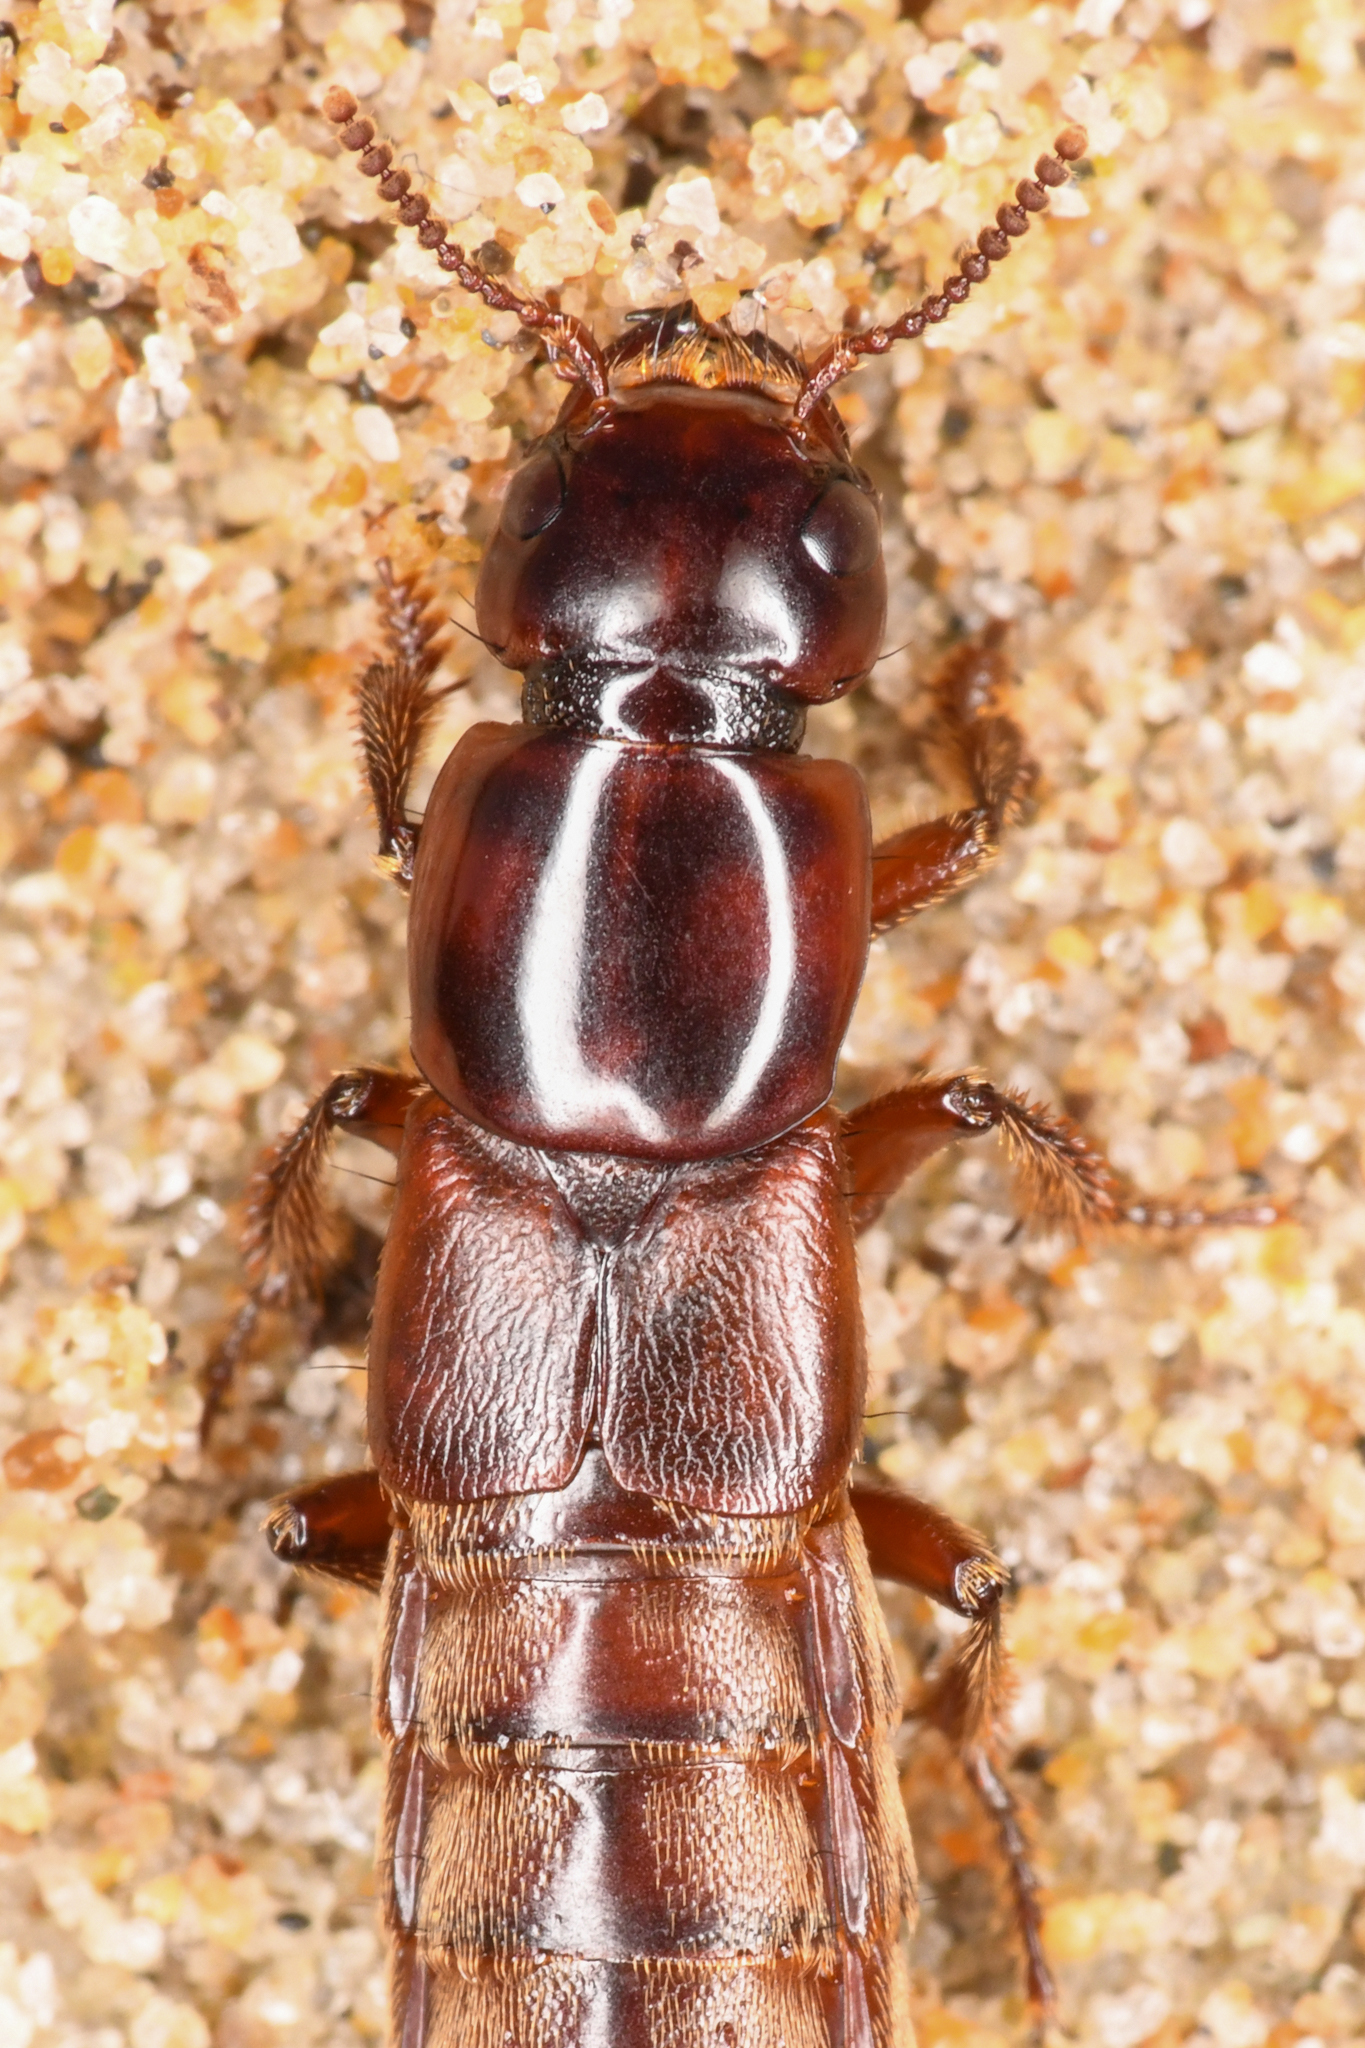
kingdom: Animalia
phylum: Arthropoda
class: Insecta
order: Coleoptera
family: Staphylinidae
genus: Hadrotes
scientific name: Hadrotes crassus
